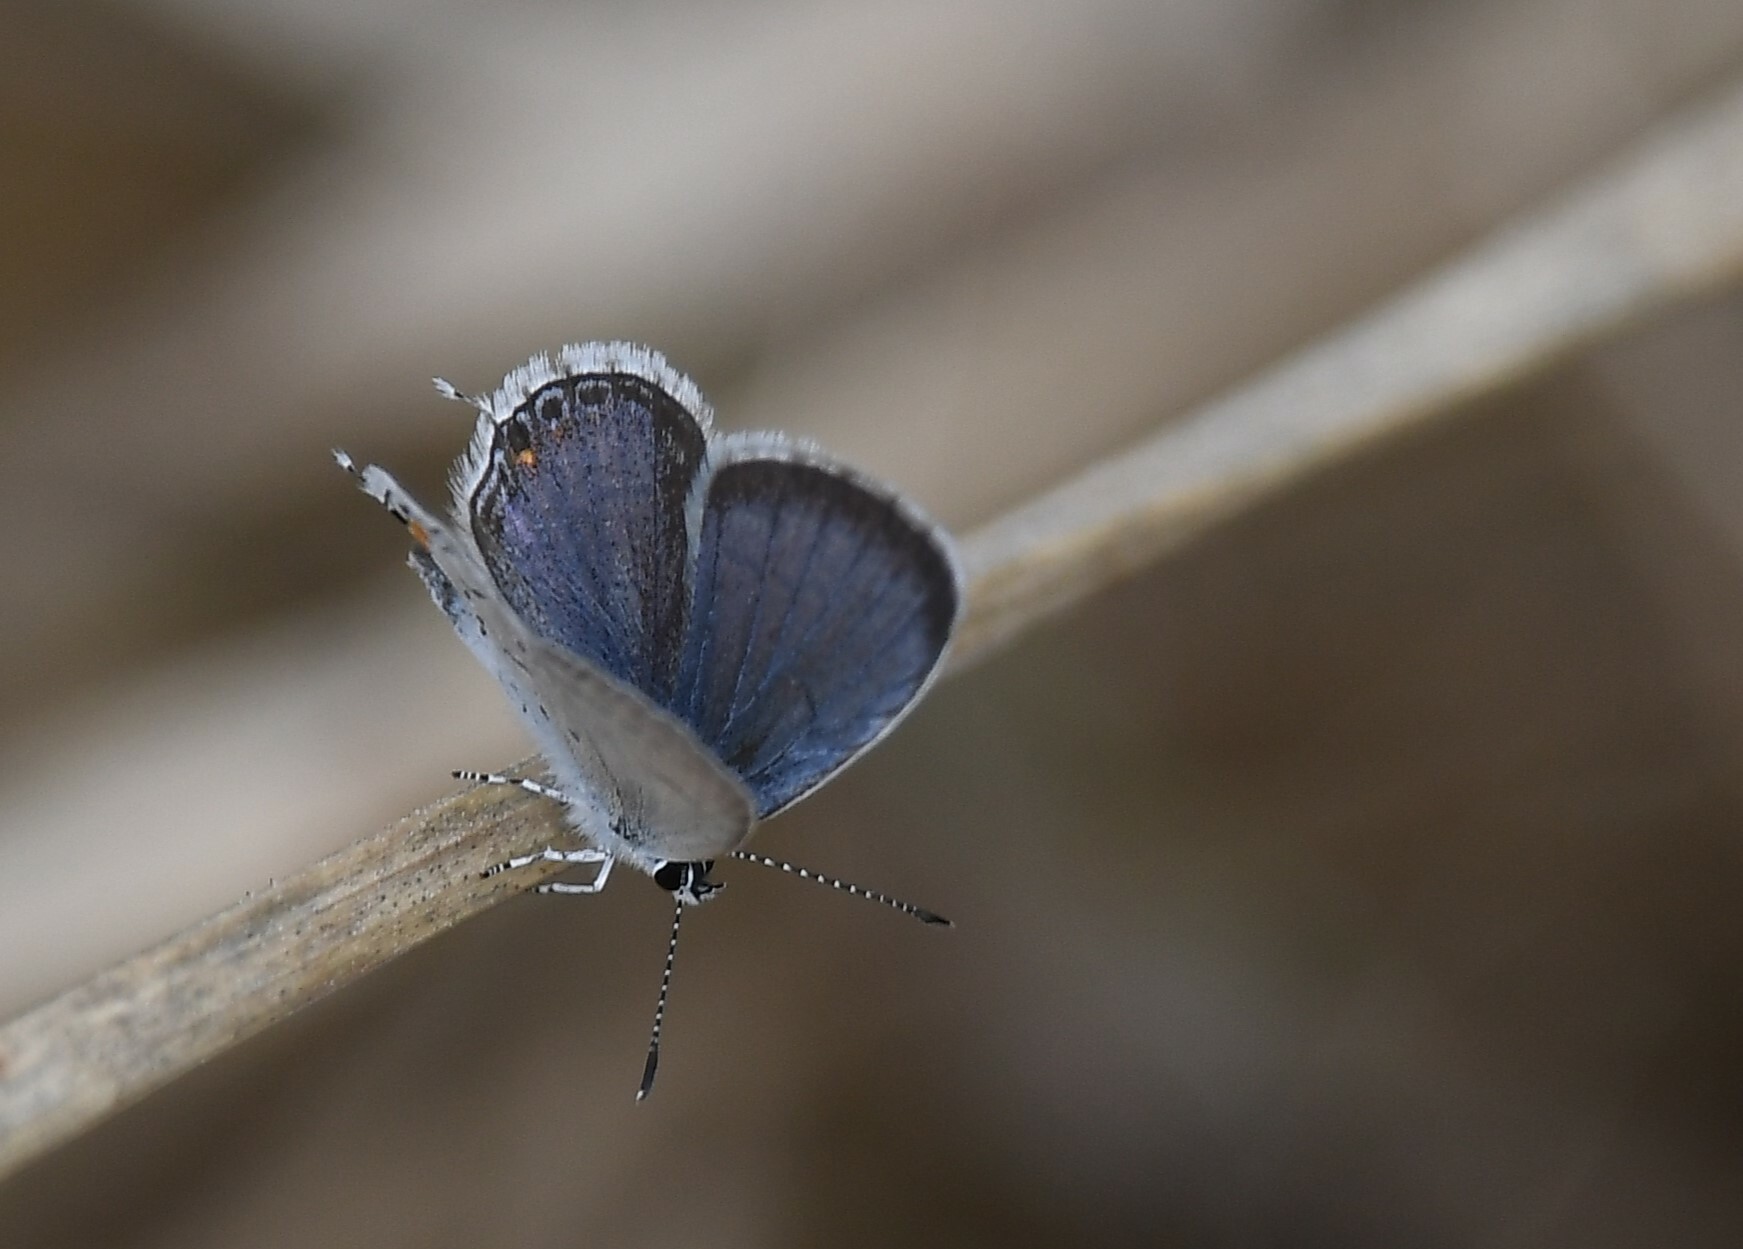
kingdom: Animalia
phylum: Arthropoda
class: Insecta
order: Lepidoptera
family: Lycaenidae
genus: Elkalyce
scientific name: Elkalyce comyntas
